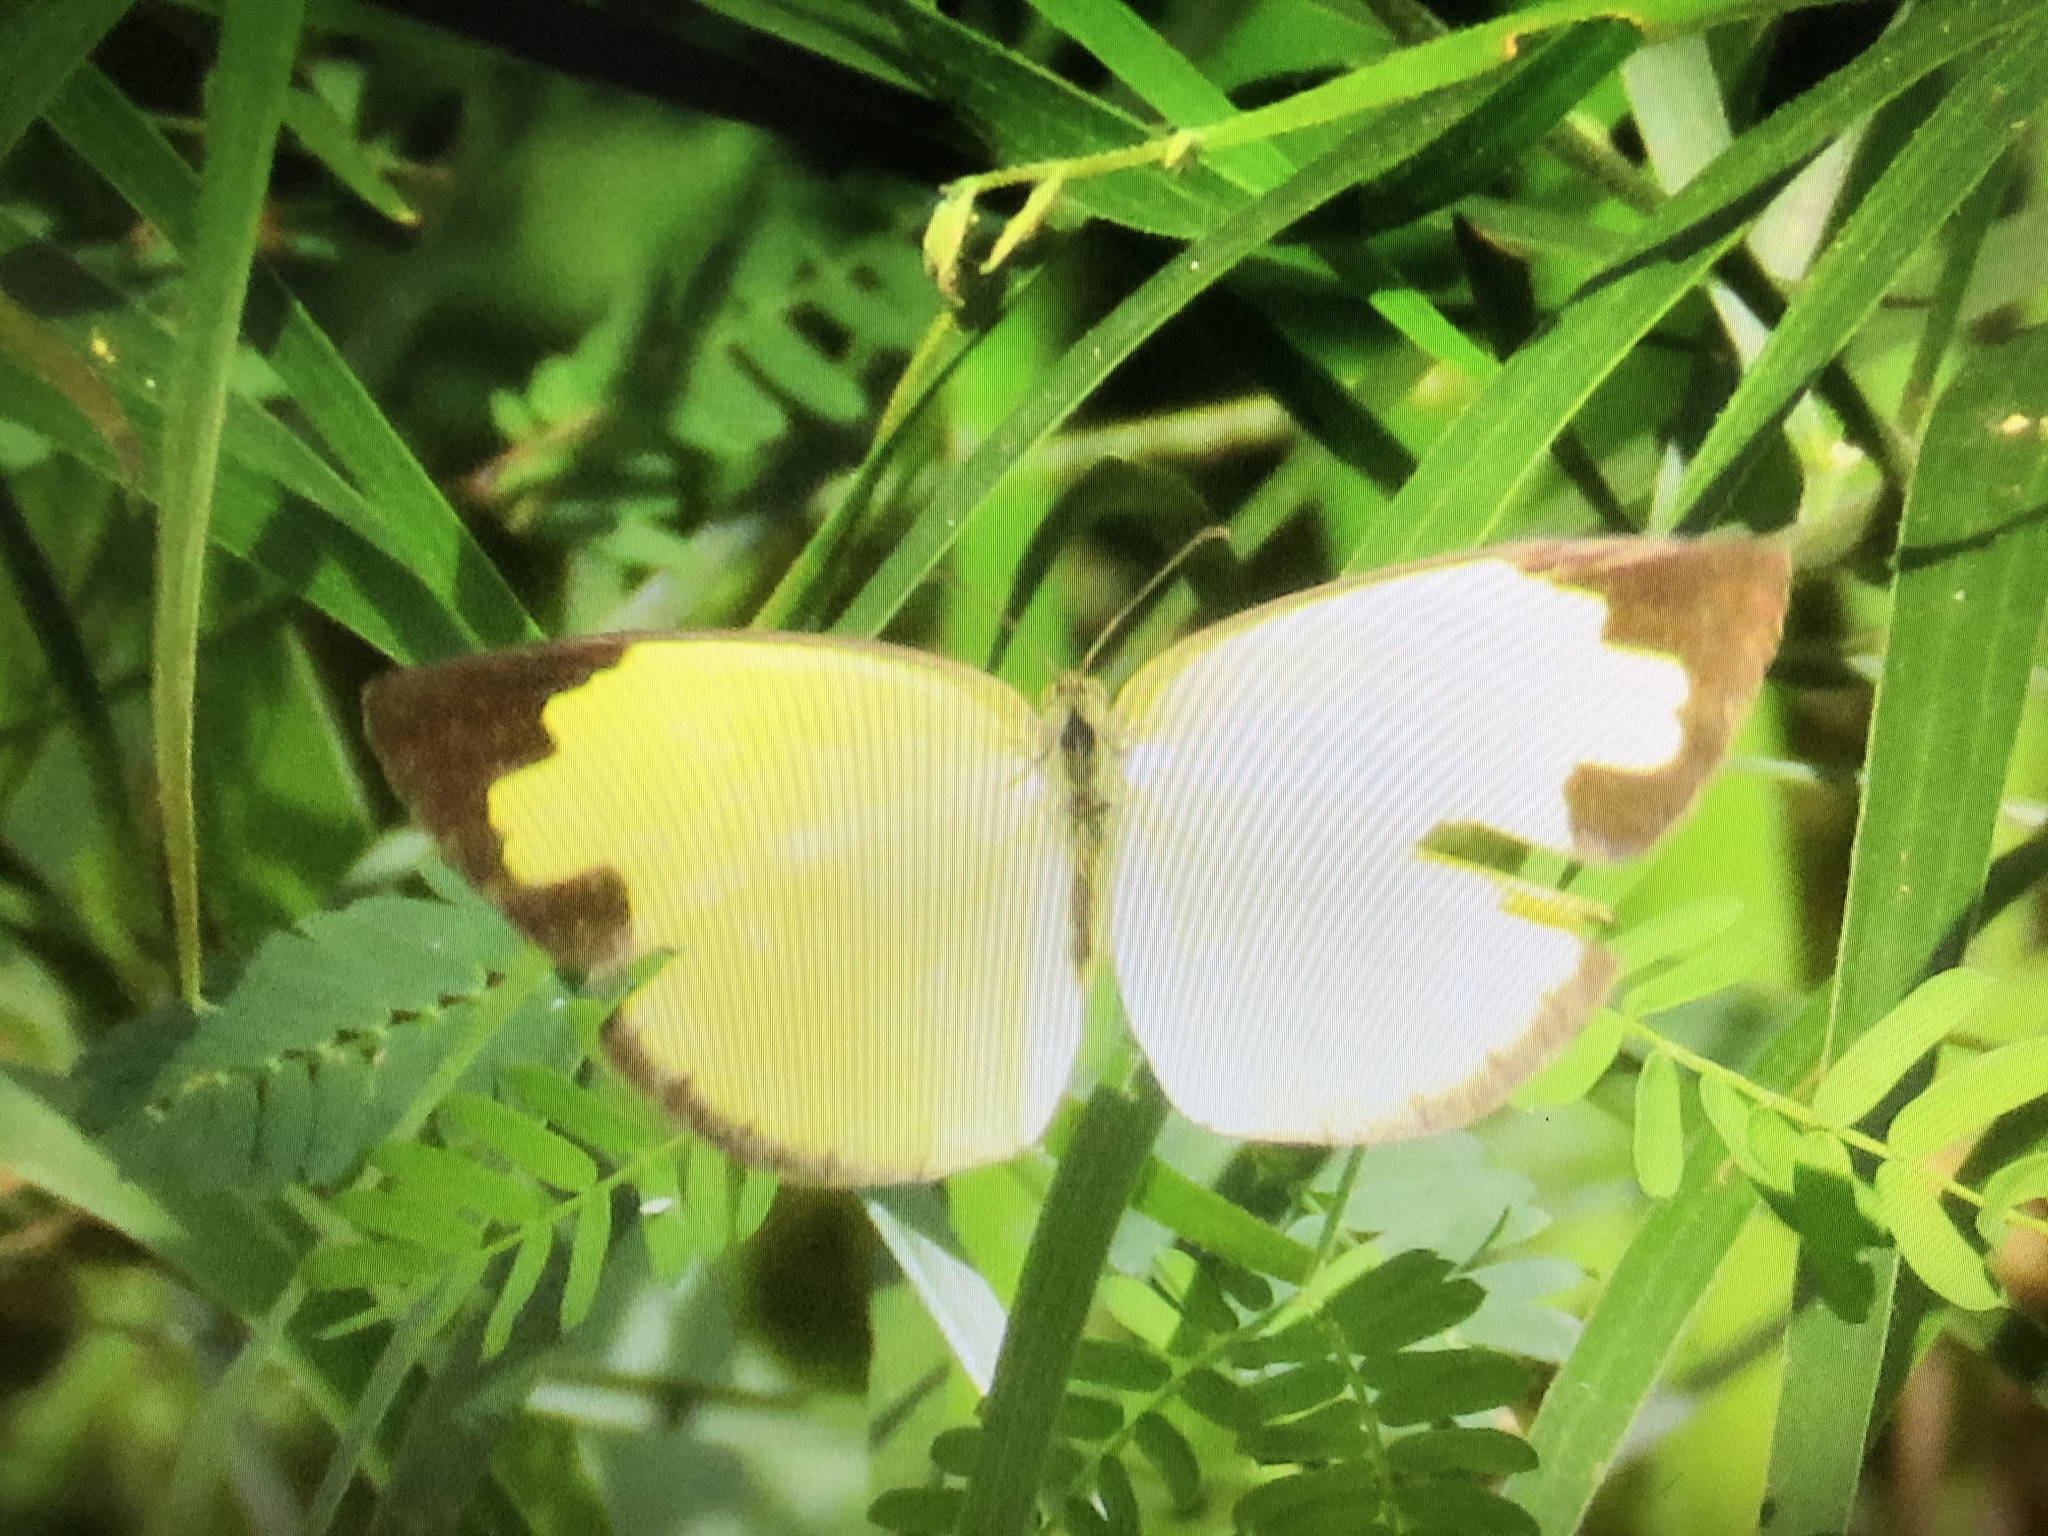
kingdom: Animalia
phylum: Arthropoda
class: Insecta
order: Lepidoptera
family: Pieridae
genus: Eurema
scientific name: Eurema hecabe
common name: Pale grass yellow
